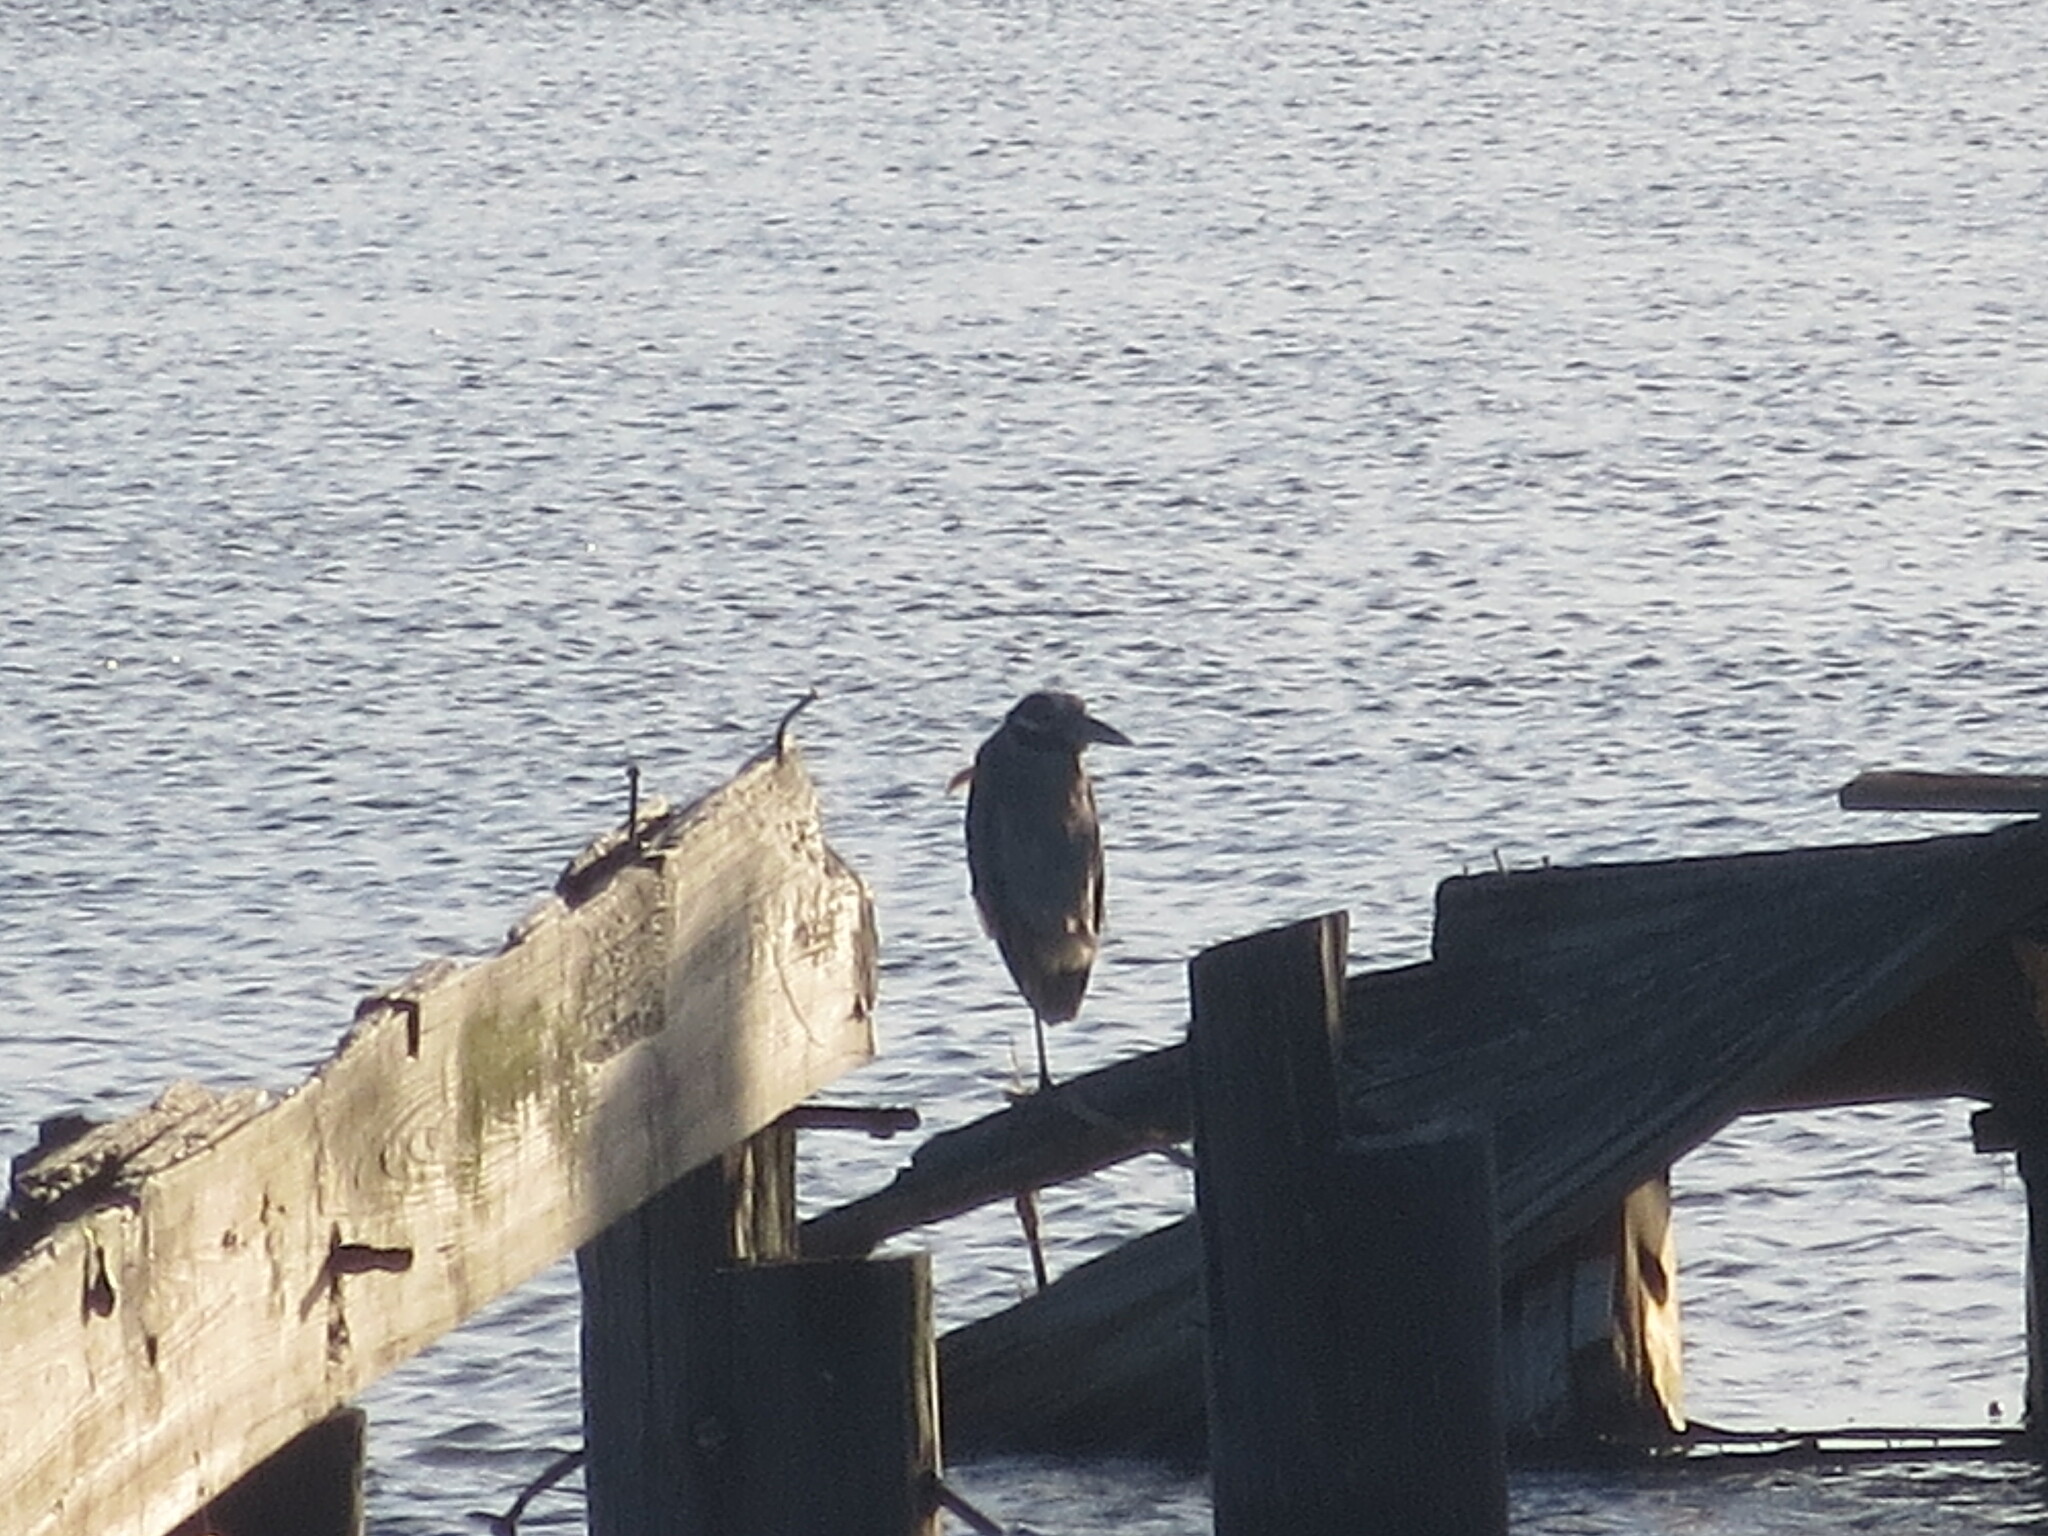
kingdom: Animalia
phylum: Chordata
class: Aves
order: Pelecaniformes
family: Ardeidae
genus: Nyctanassa
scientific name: Nyctanassa violacea
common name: Yellow-crowned night heron
